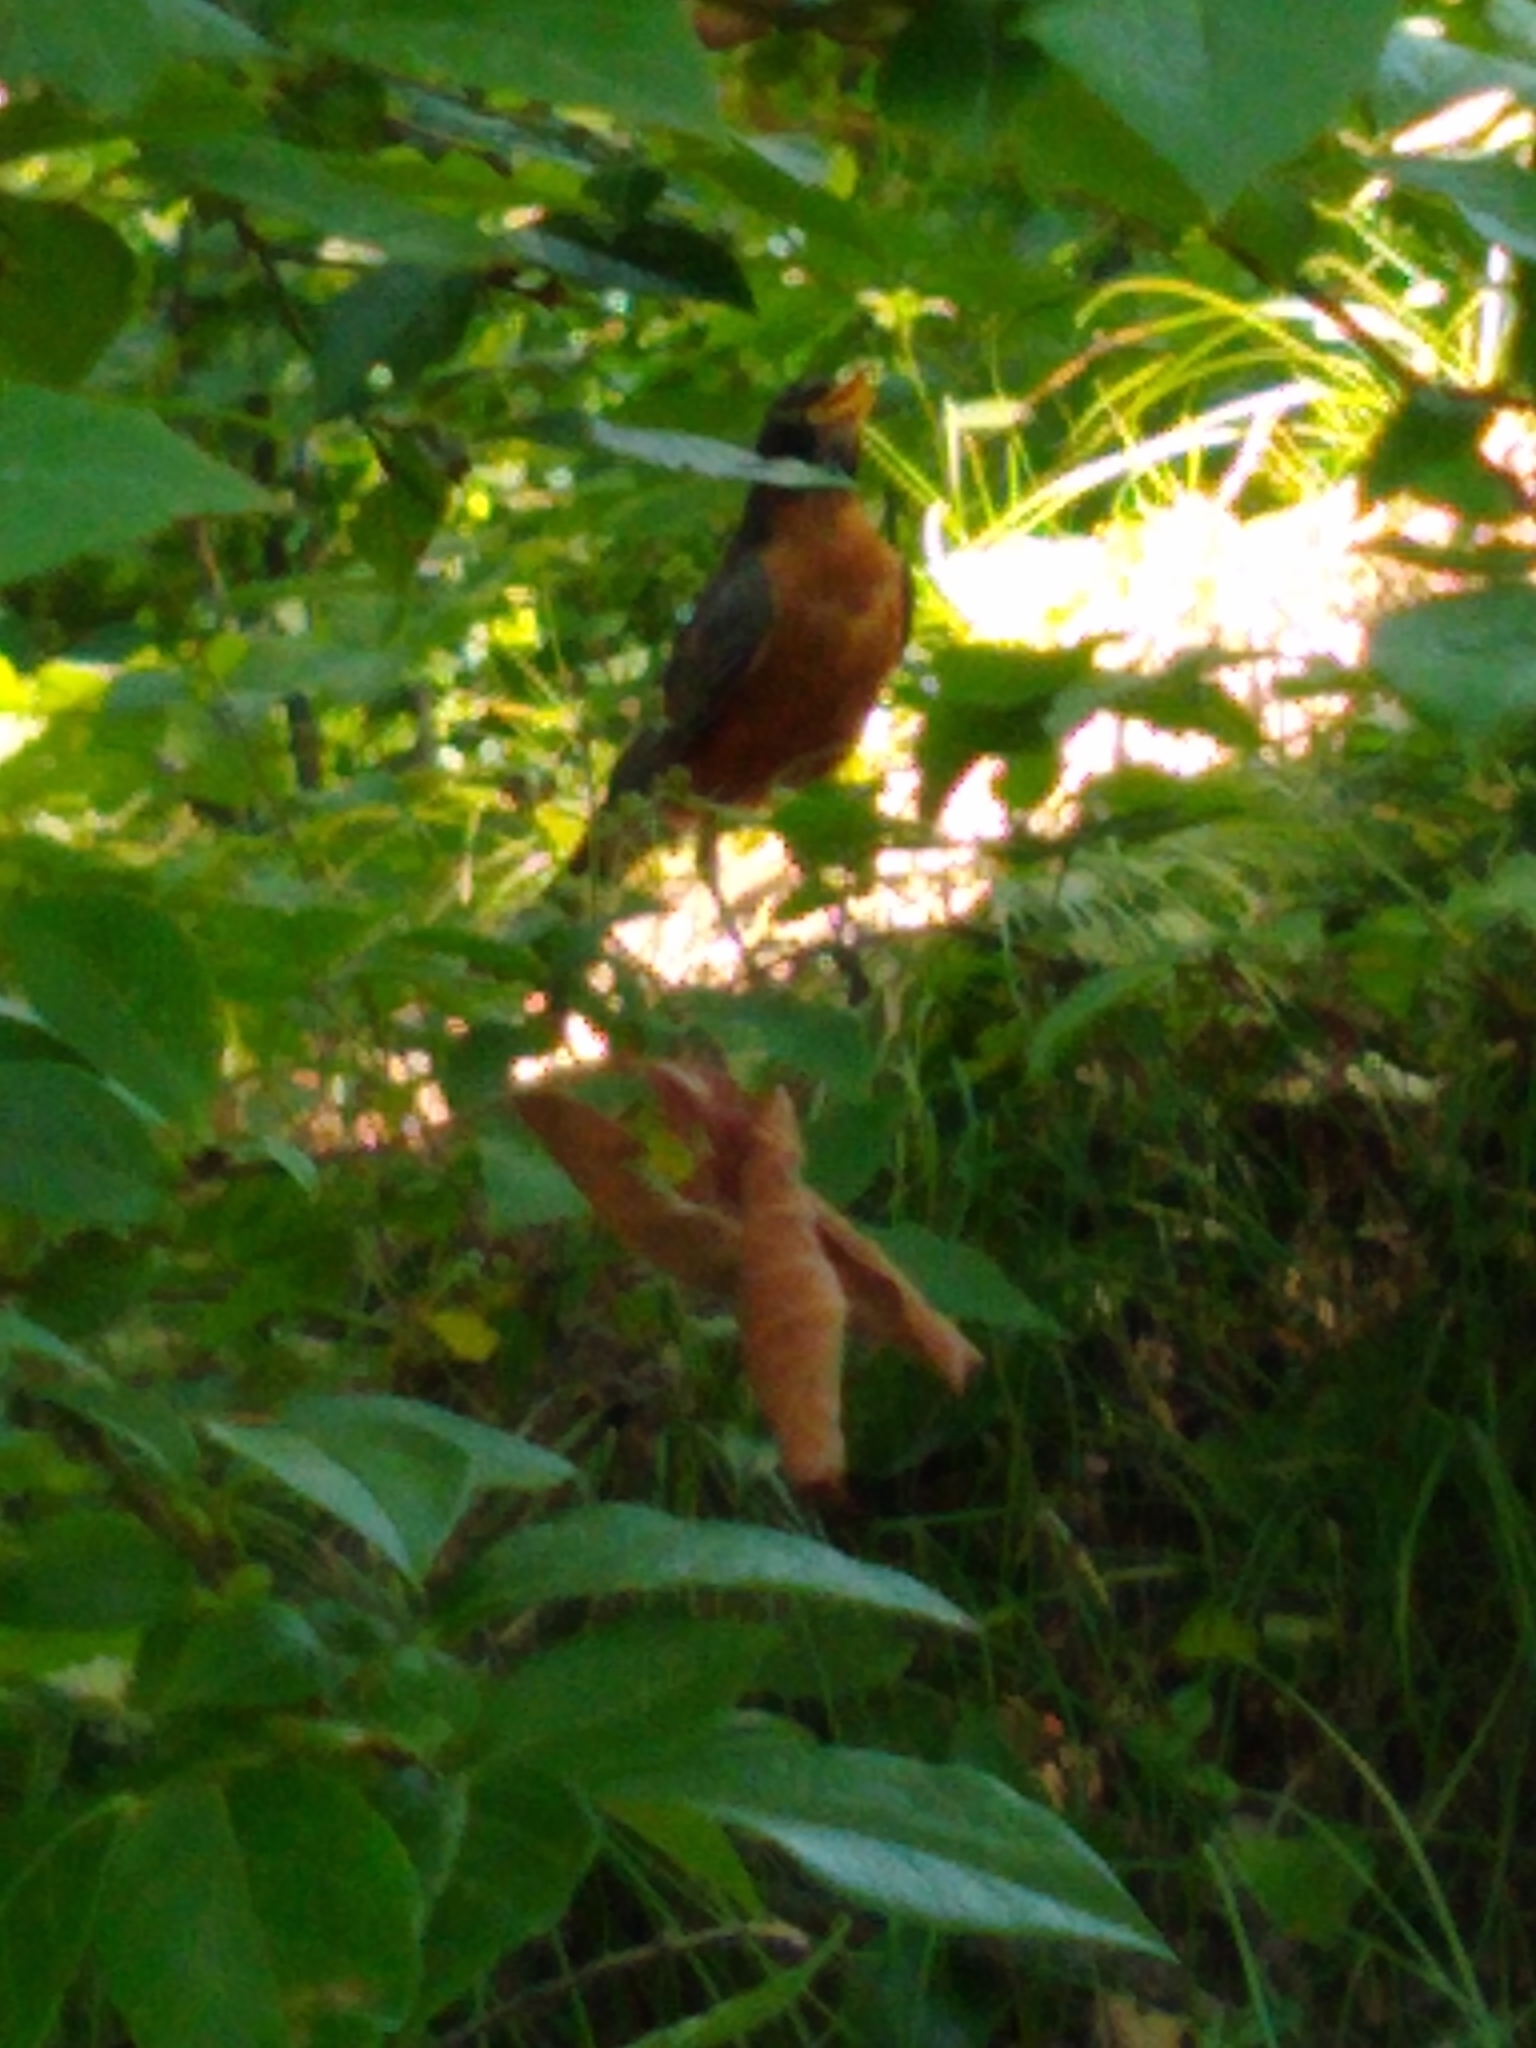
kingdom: Animalia
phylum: Chordata
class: Aves
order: Passeriformes
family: Turdidae
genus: Turdus
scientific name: Turdus migratorius
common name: American robin
